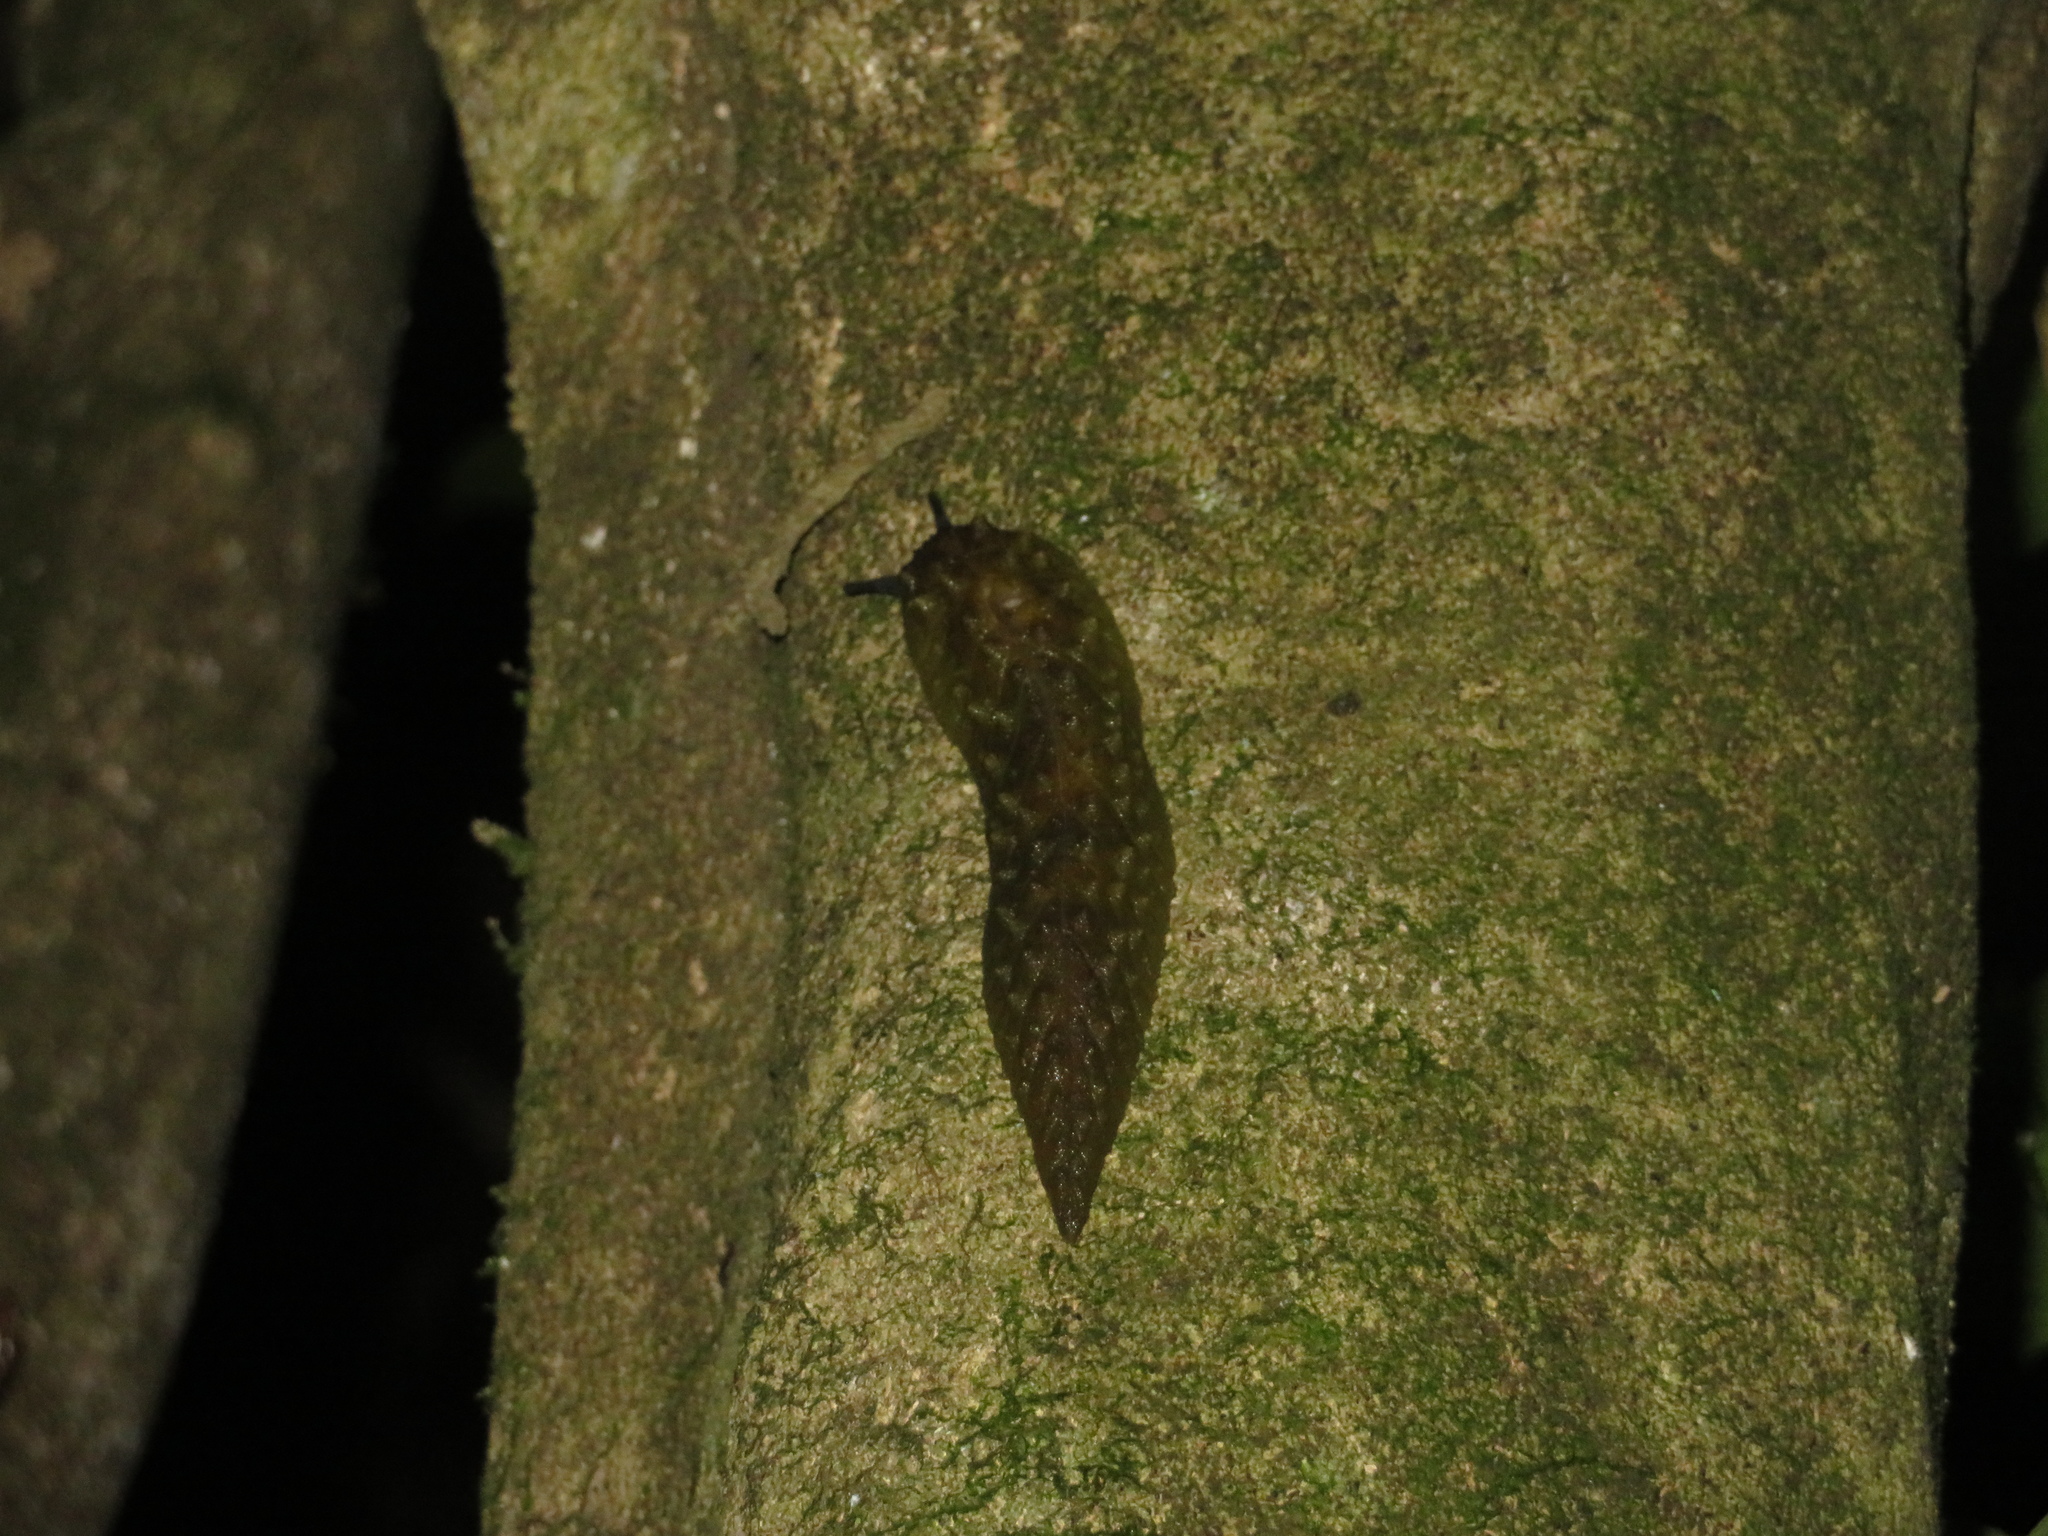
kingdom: Animalia
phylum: Mollusca
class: Gastropoda
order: Stylommatophora
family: Athoracophoridae
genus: Athoracophorus
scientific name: Athoracophorus papillatus
